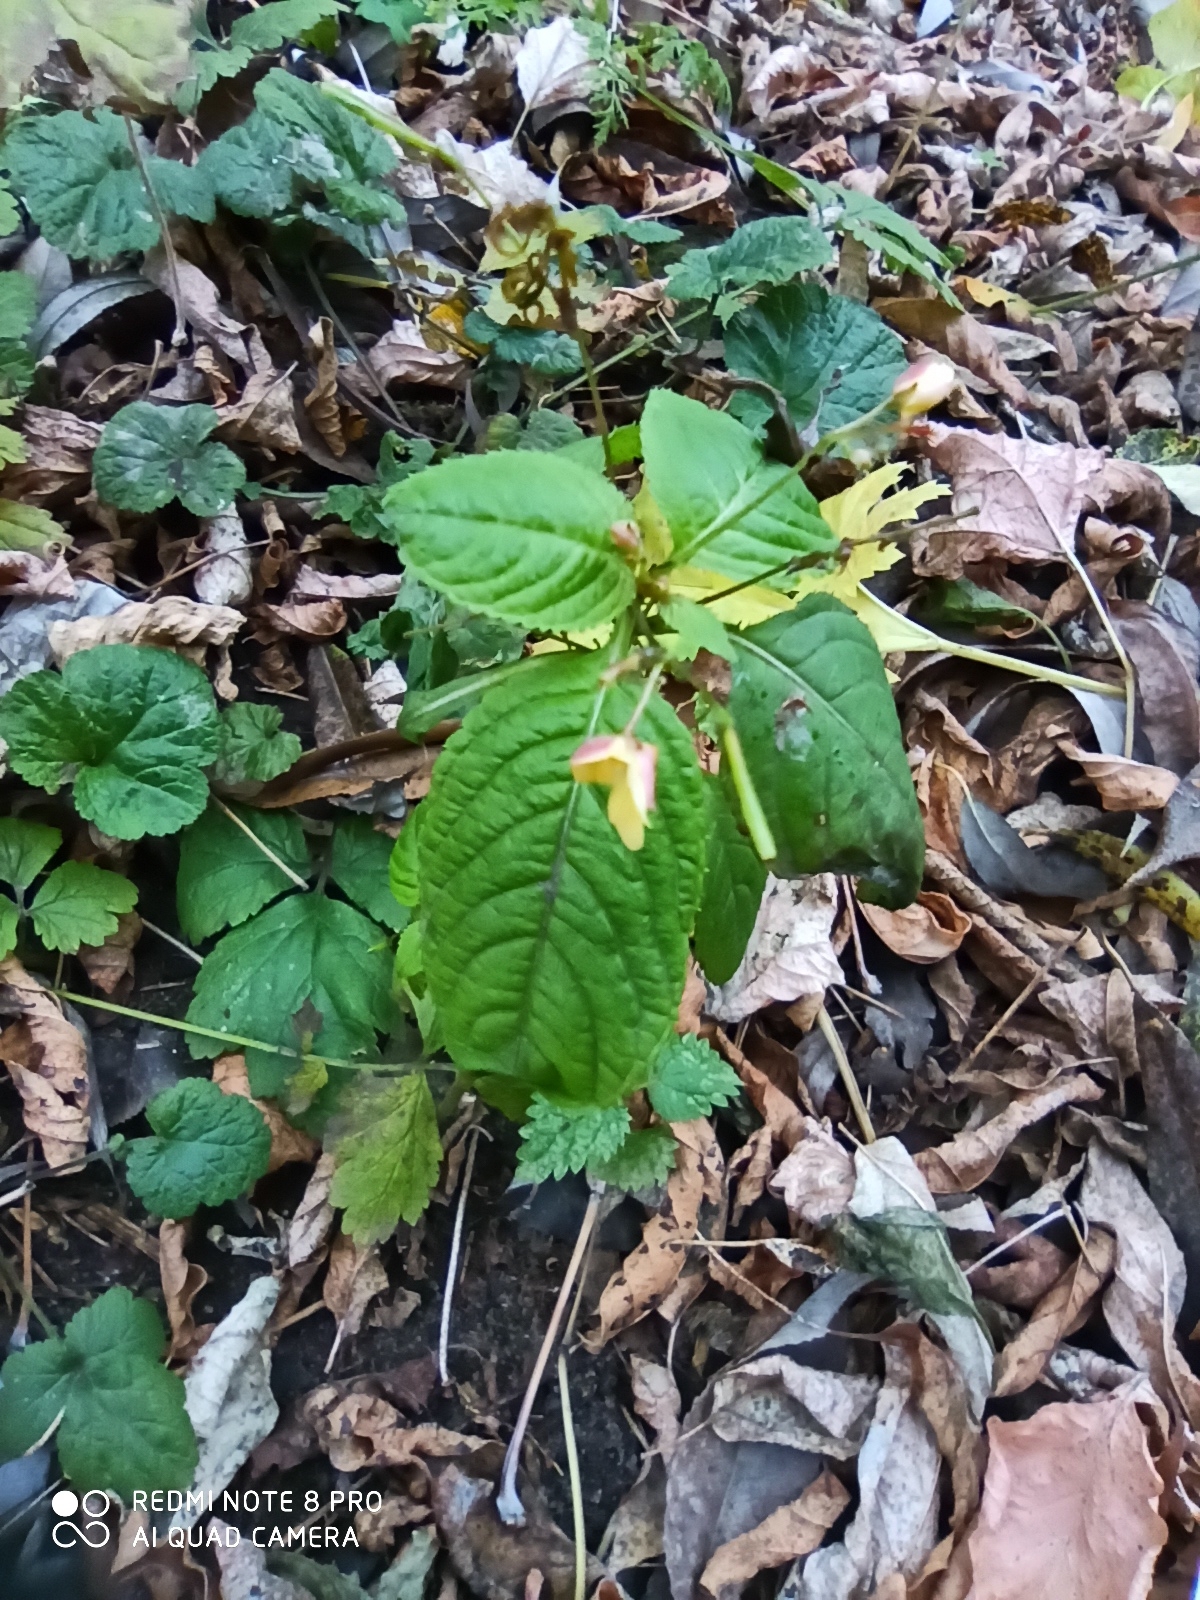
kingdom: Plantae
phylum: Tracheophyta
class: Magnoliopsida
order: Ericales
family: Balsaminaceae
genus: Impatiens
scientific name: Impatiens parviflora
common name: Small balsam
